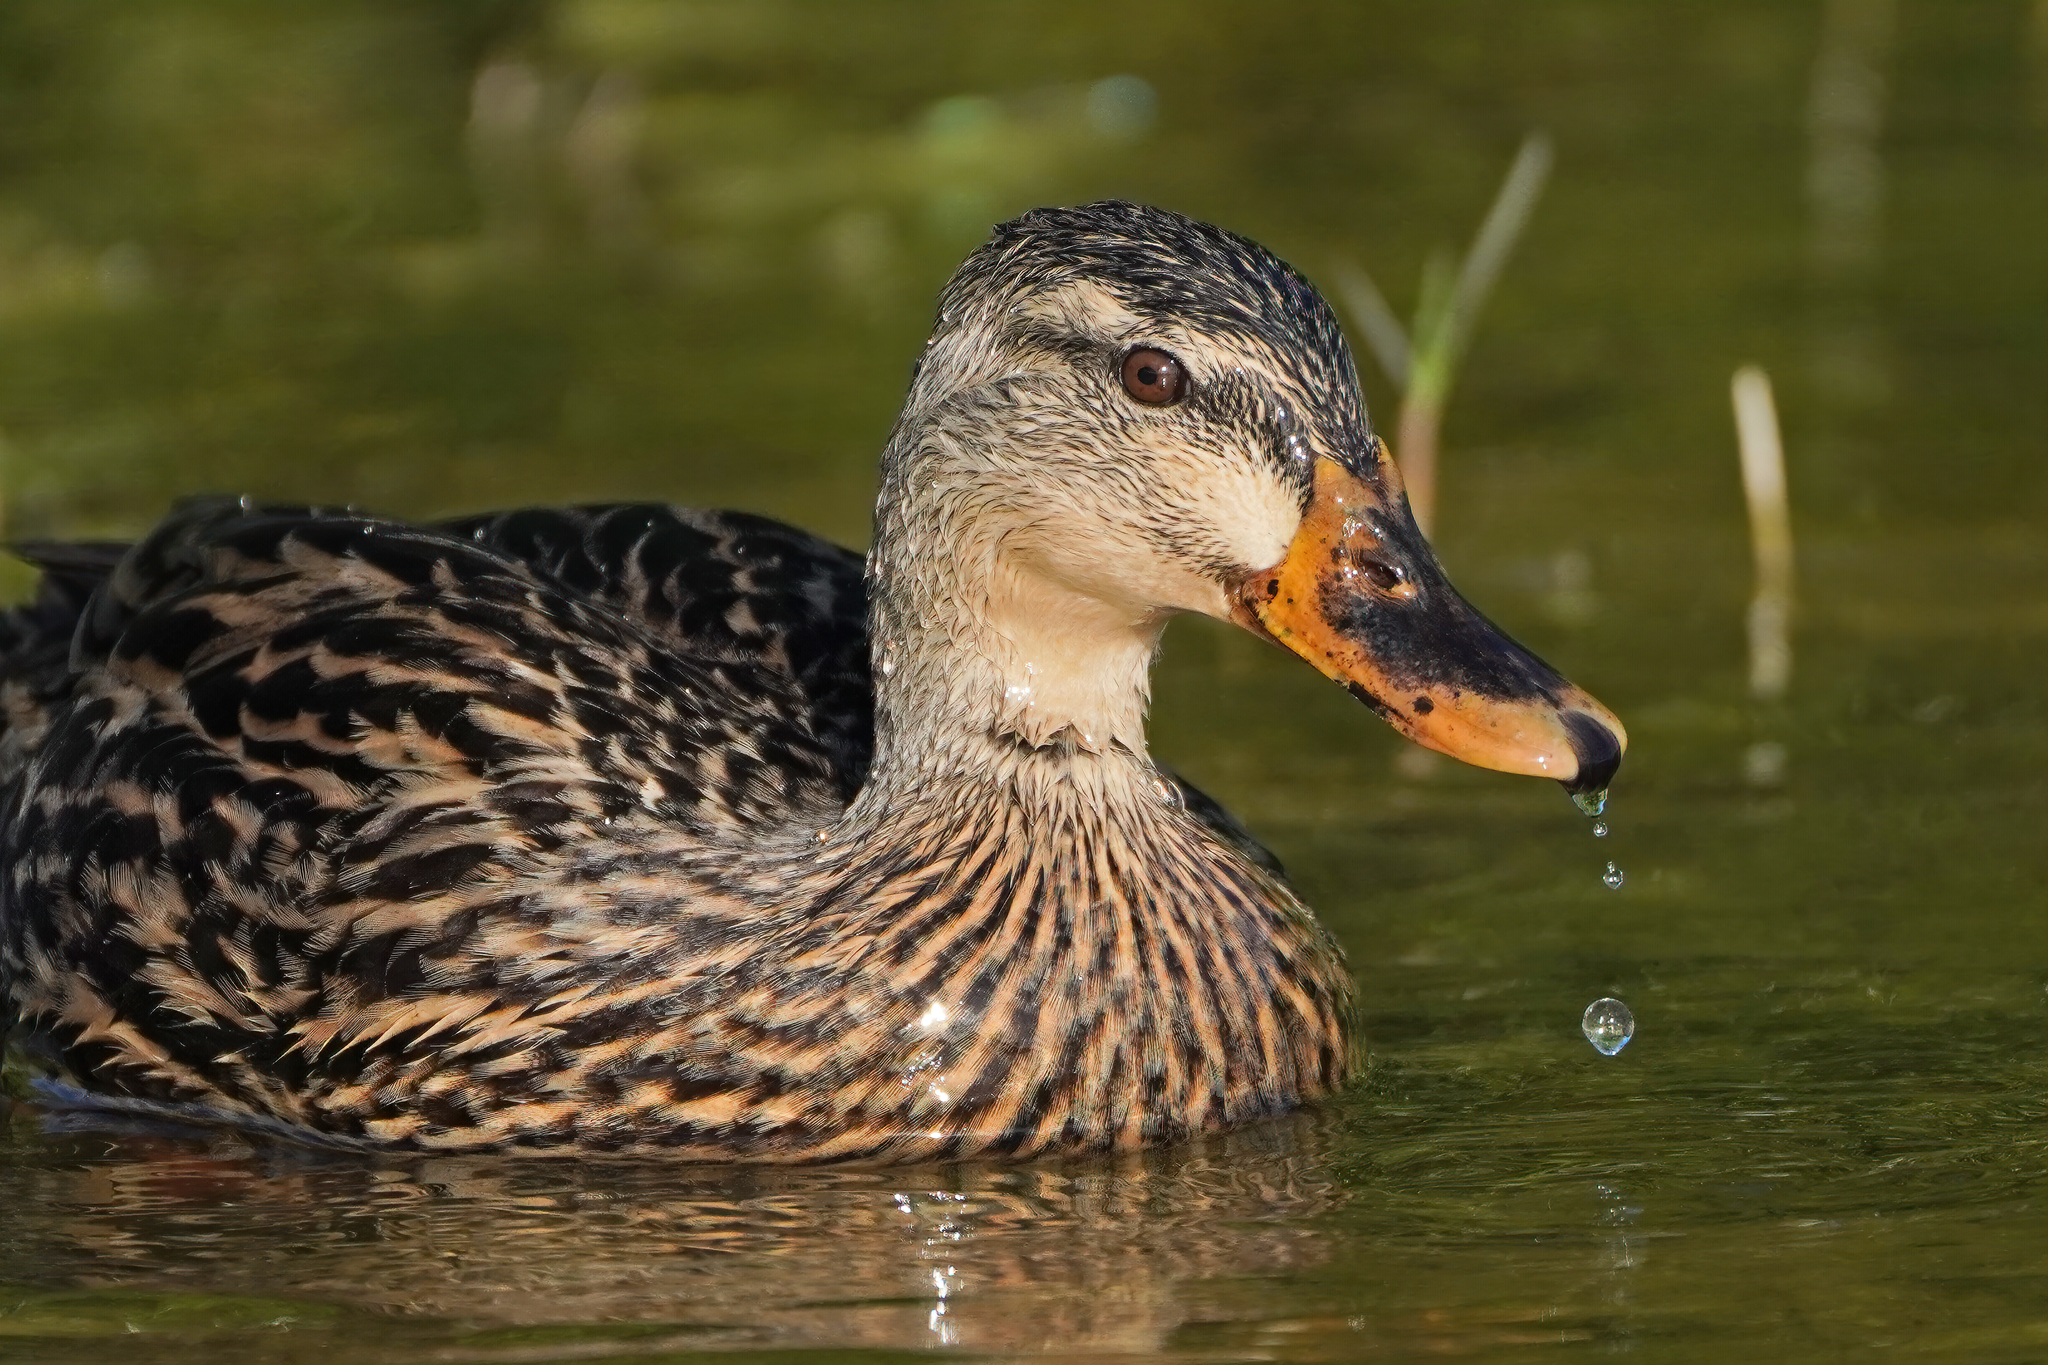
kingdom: Animalia
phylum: Chordata
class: Aves
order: Anseriformes
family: Anatidae
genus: Anas
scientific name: Anas platyrhynchos
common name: Mallard
